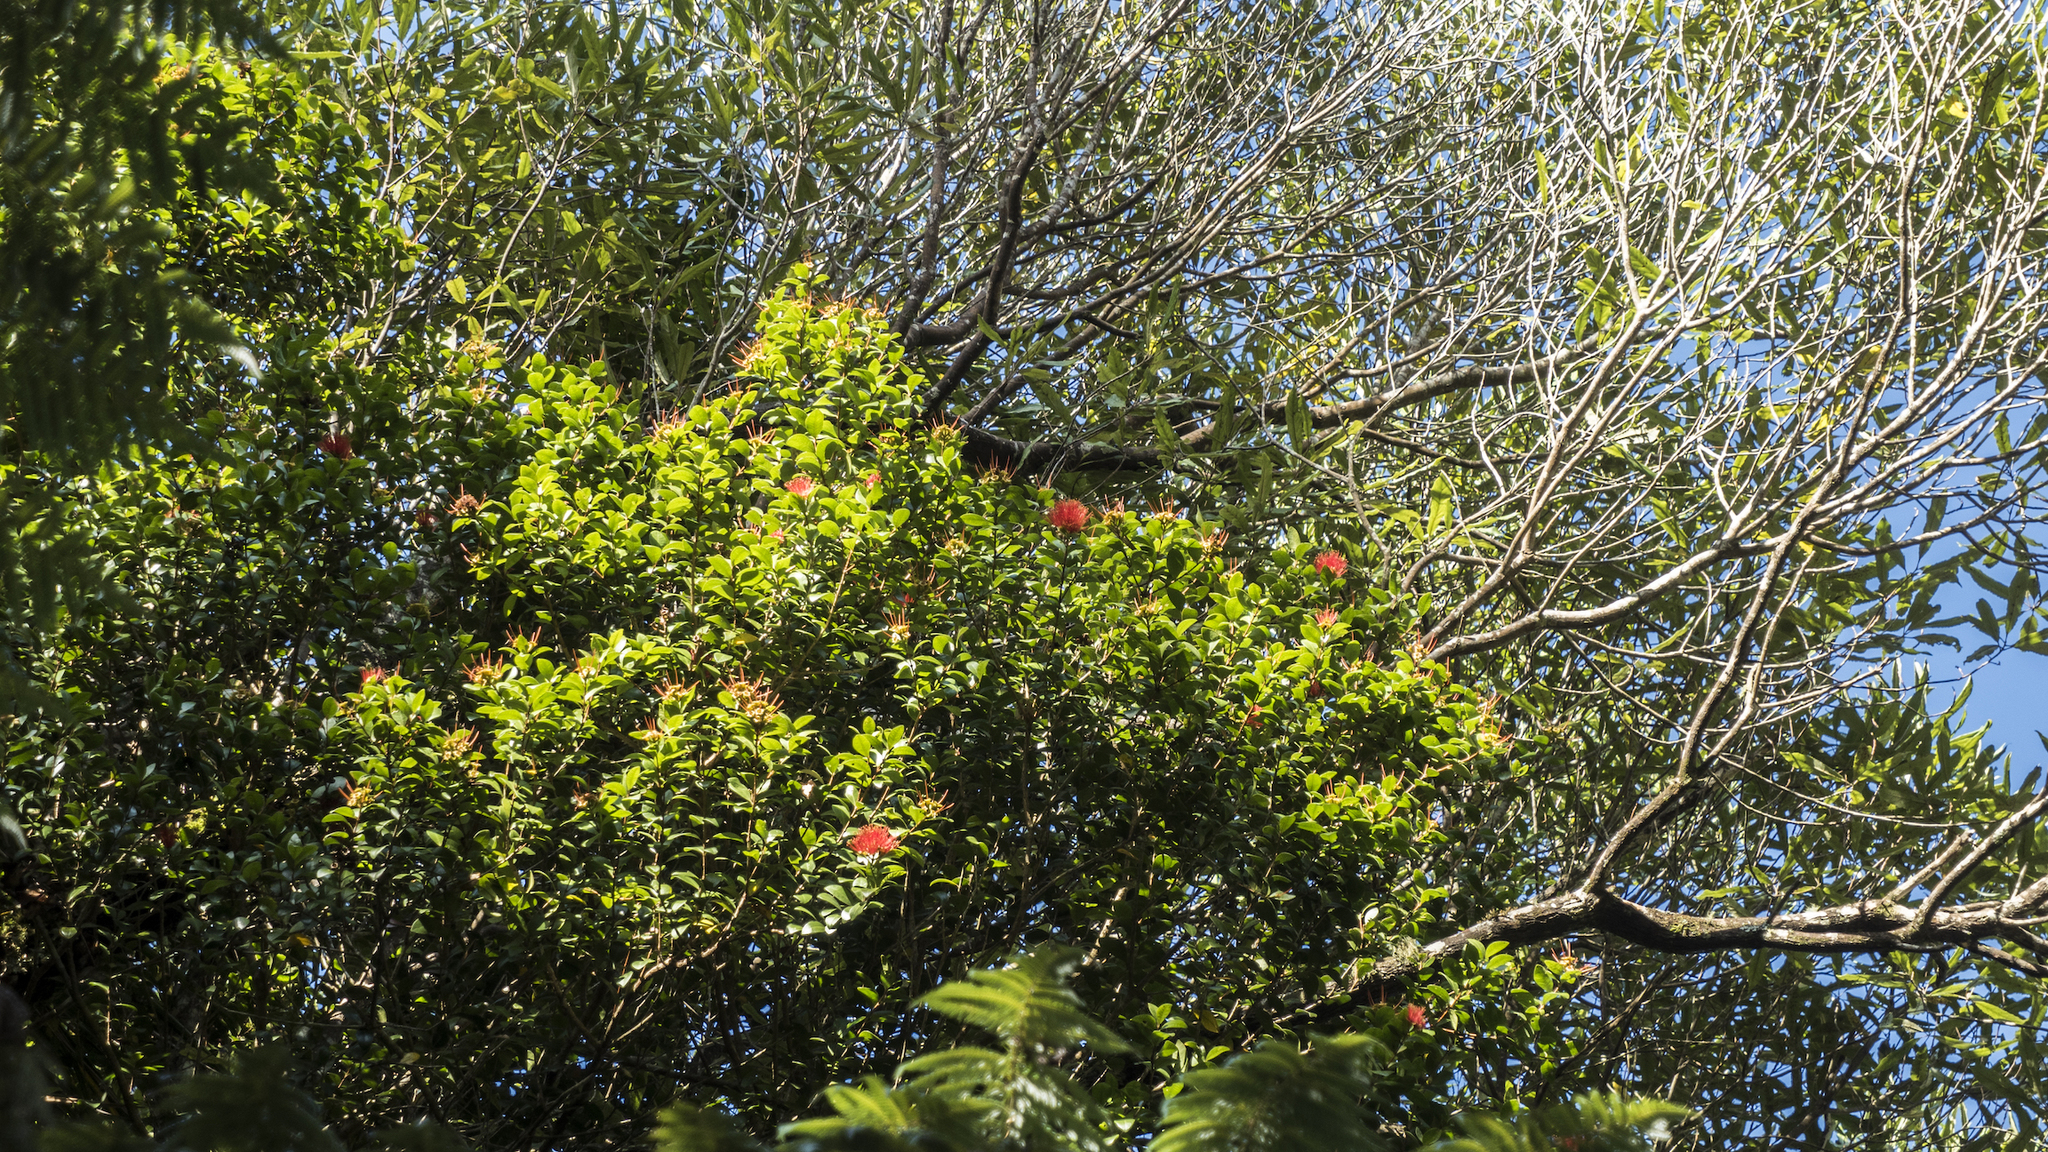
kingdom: Plantae
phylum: Tracheophyta
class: Magnoliopsida
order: Myrtales
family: Myrtaceae
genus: Metrosideros
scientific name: Metrosideros fulgens
